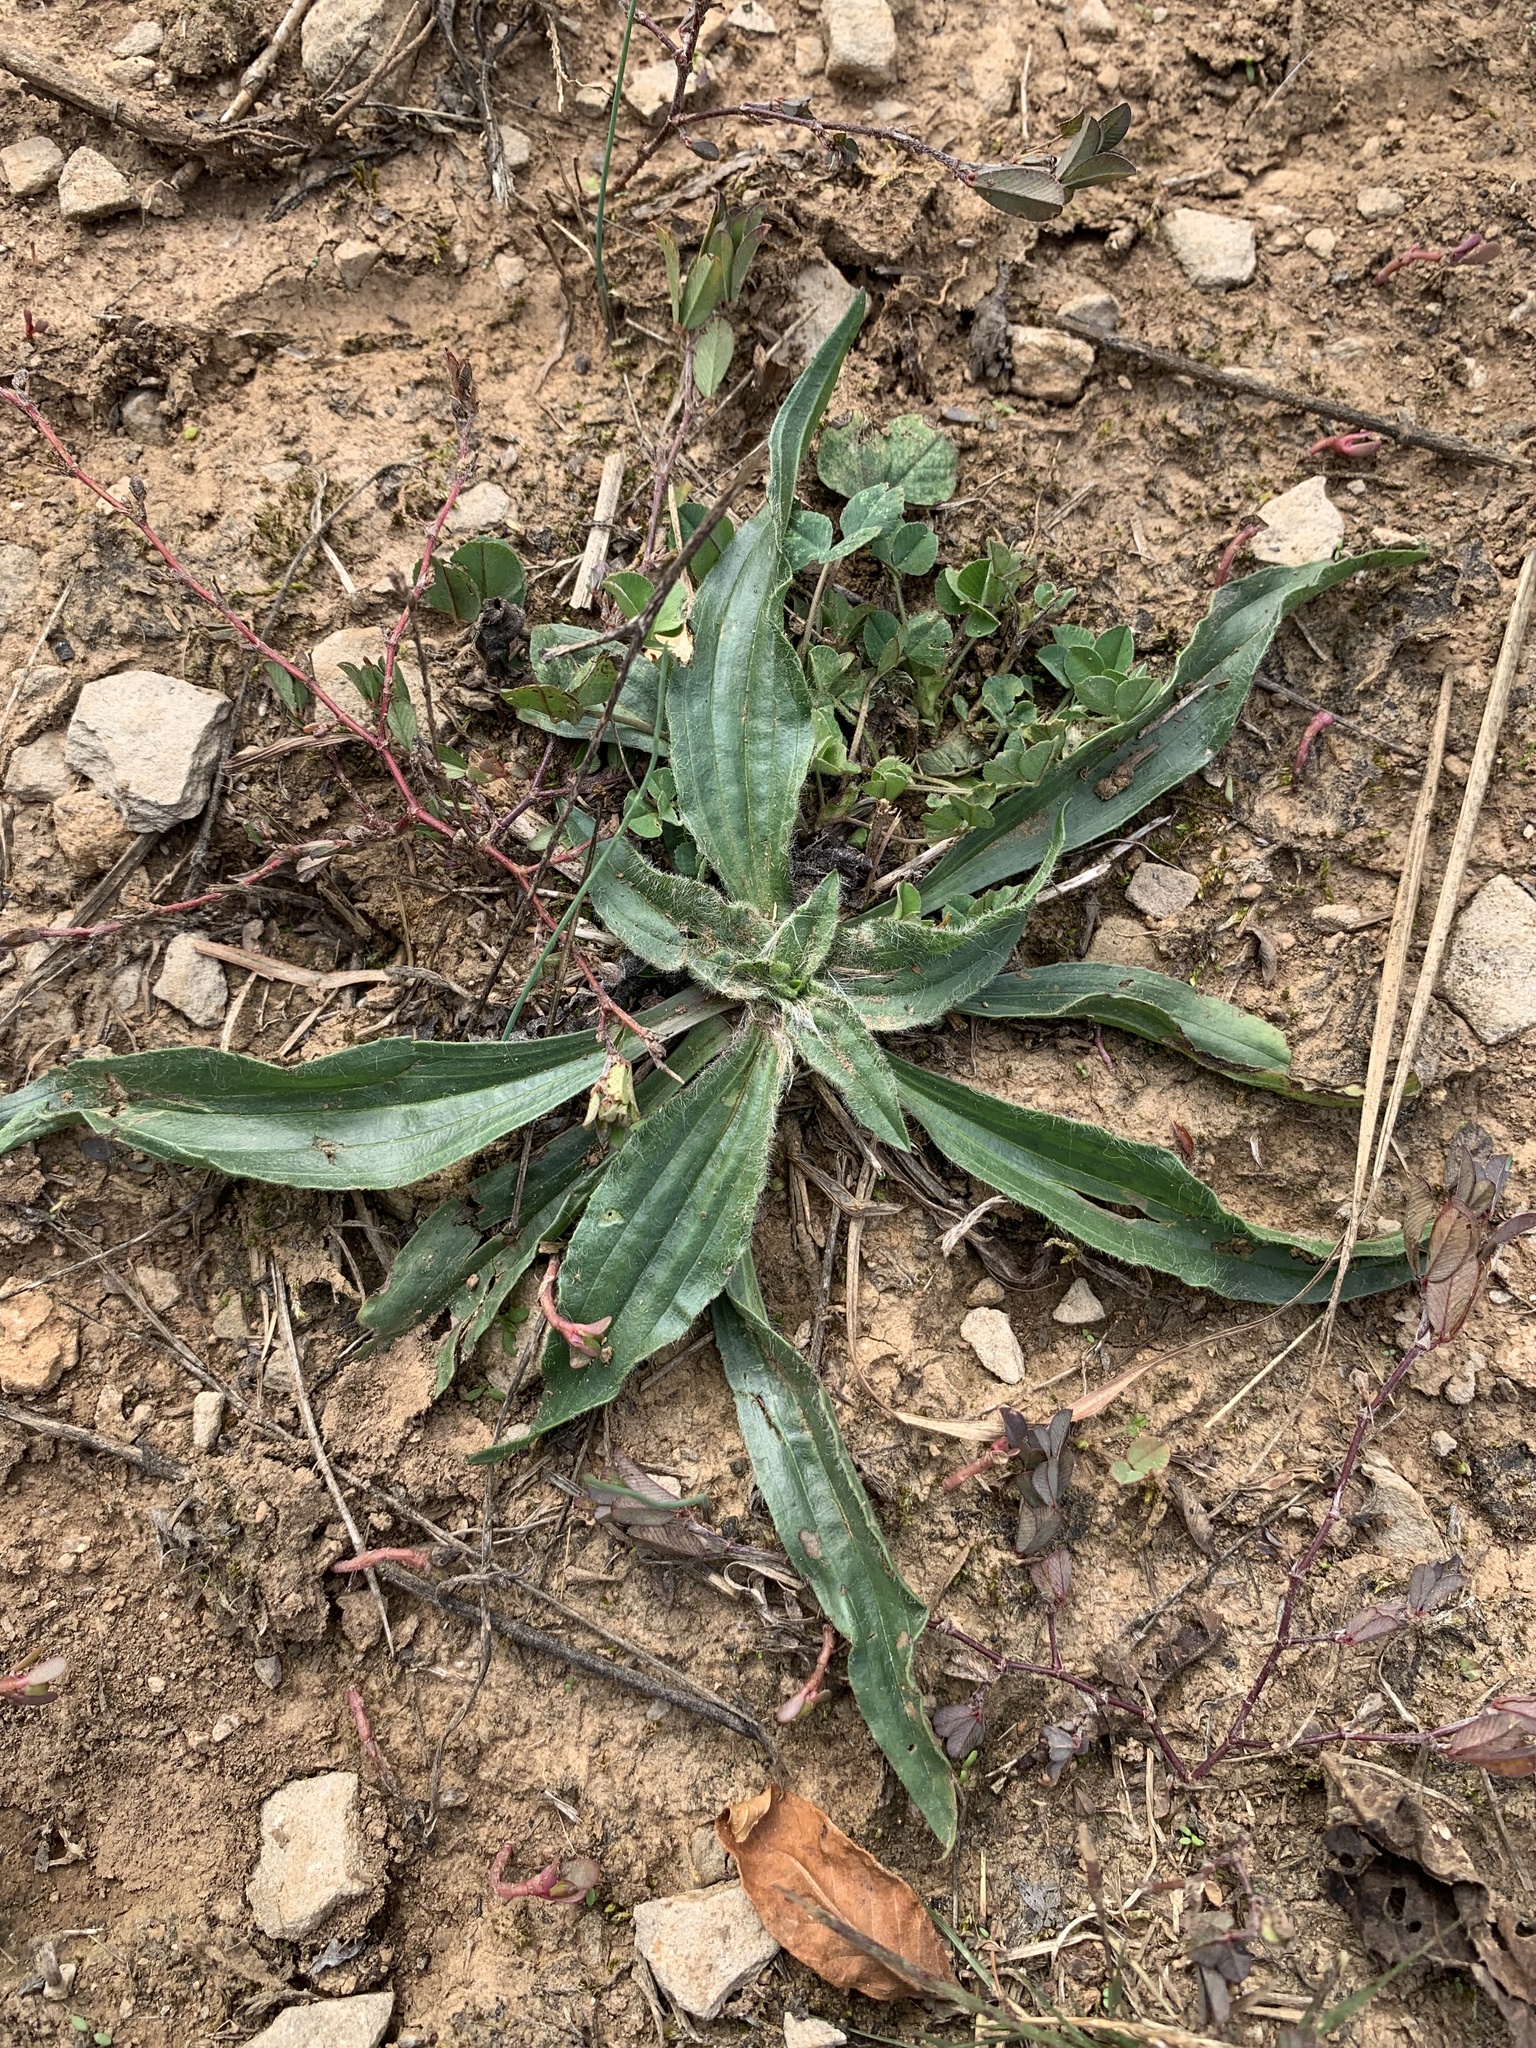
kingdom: Plantae
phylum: Tracheophyta
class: Magnoliopsida
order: Lamiales
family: Plantaginaceae
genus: Plantago
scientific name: Plantago lanceolata
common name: Ribwort plantain
